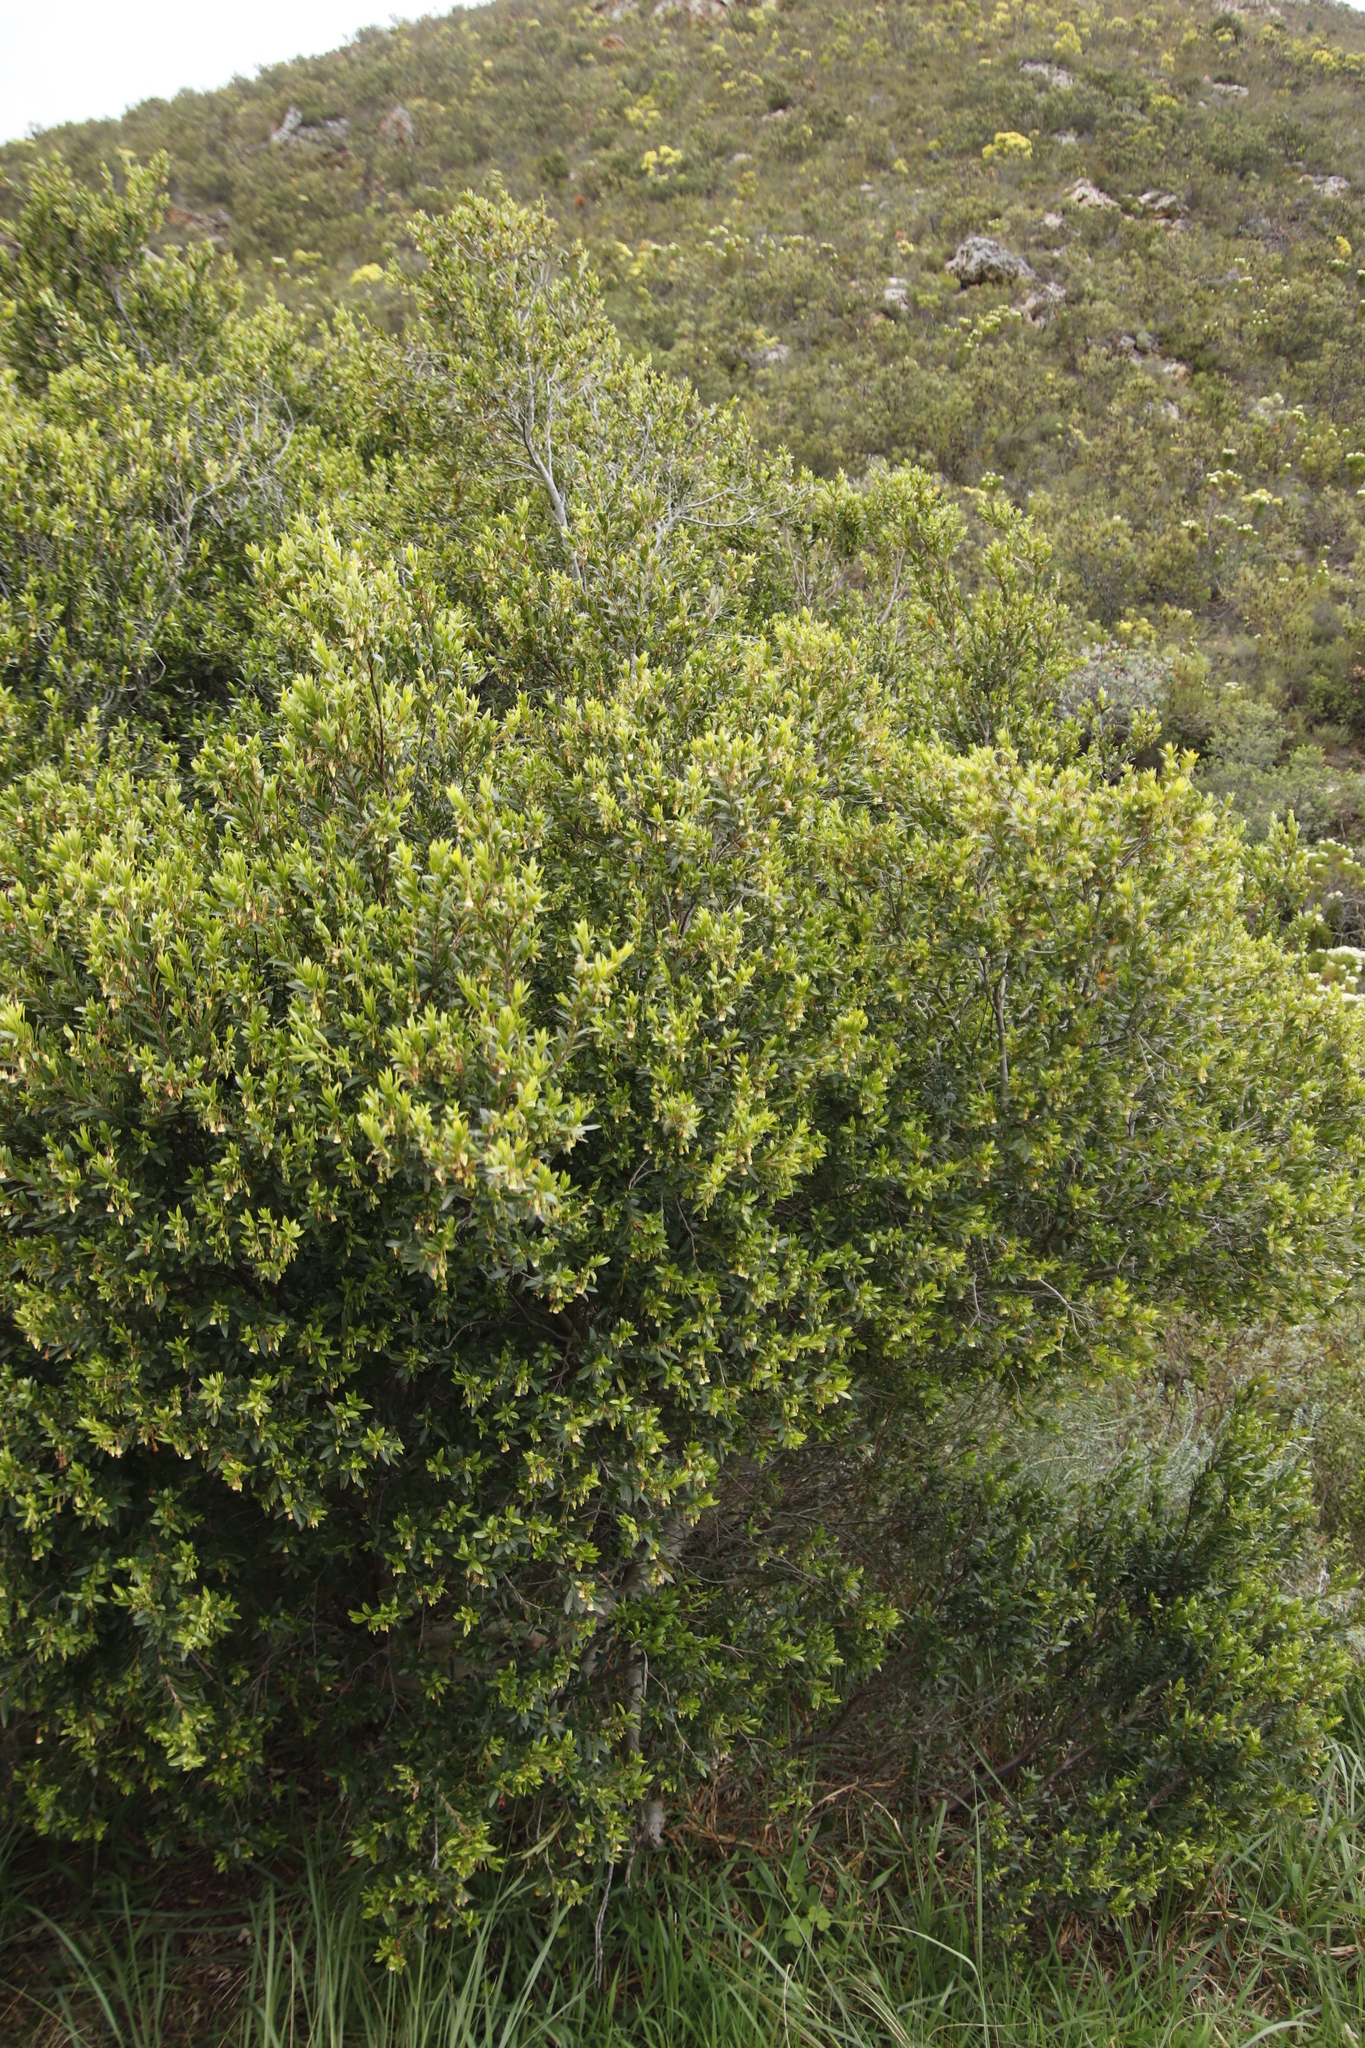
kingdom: Plantae
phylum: Tracheophyta
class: Magnoliopsida
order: Ericales
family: Ebenaceae
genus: Diospyros
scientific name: Diospyros glabra
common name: Fynbos star apple
